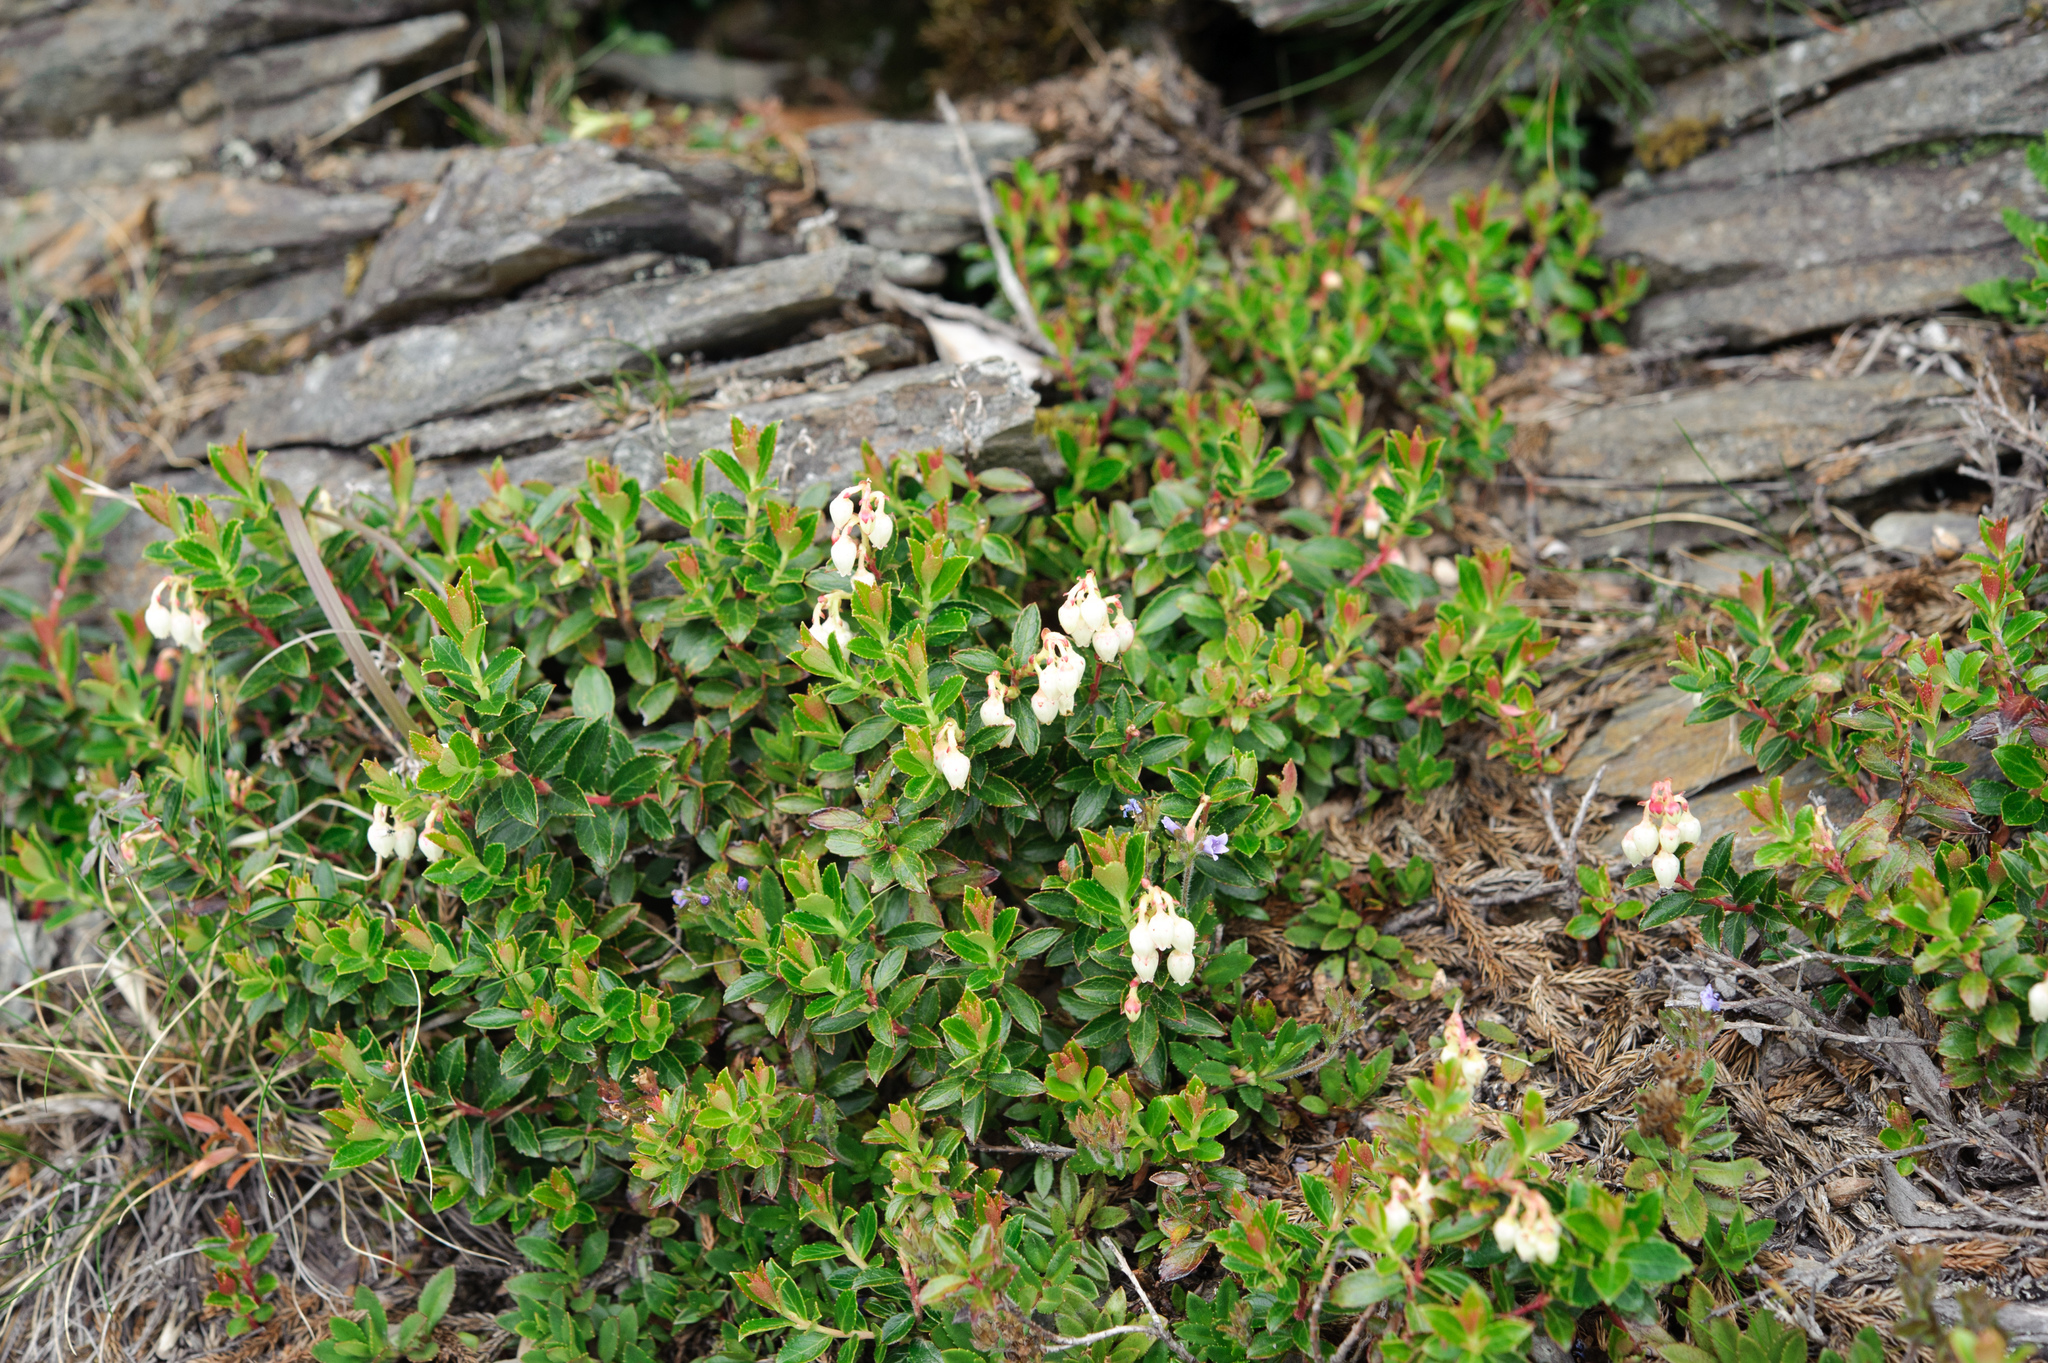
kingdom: Plantae
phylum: Tracheophyta
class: Magnoliopsida
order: Ericales
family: Ericaceae
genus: Gaultheria
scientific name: Gaultheria borneensis
